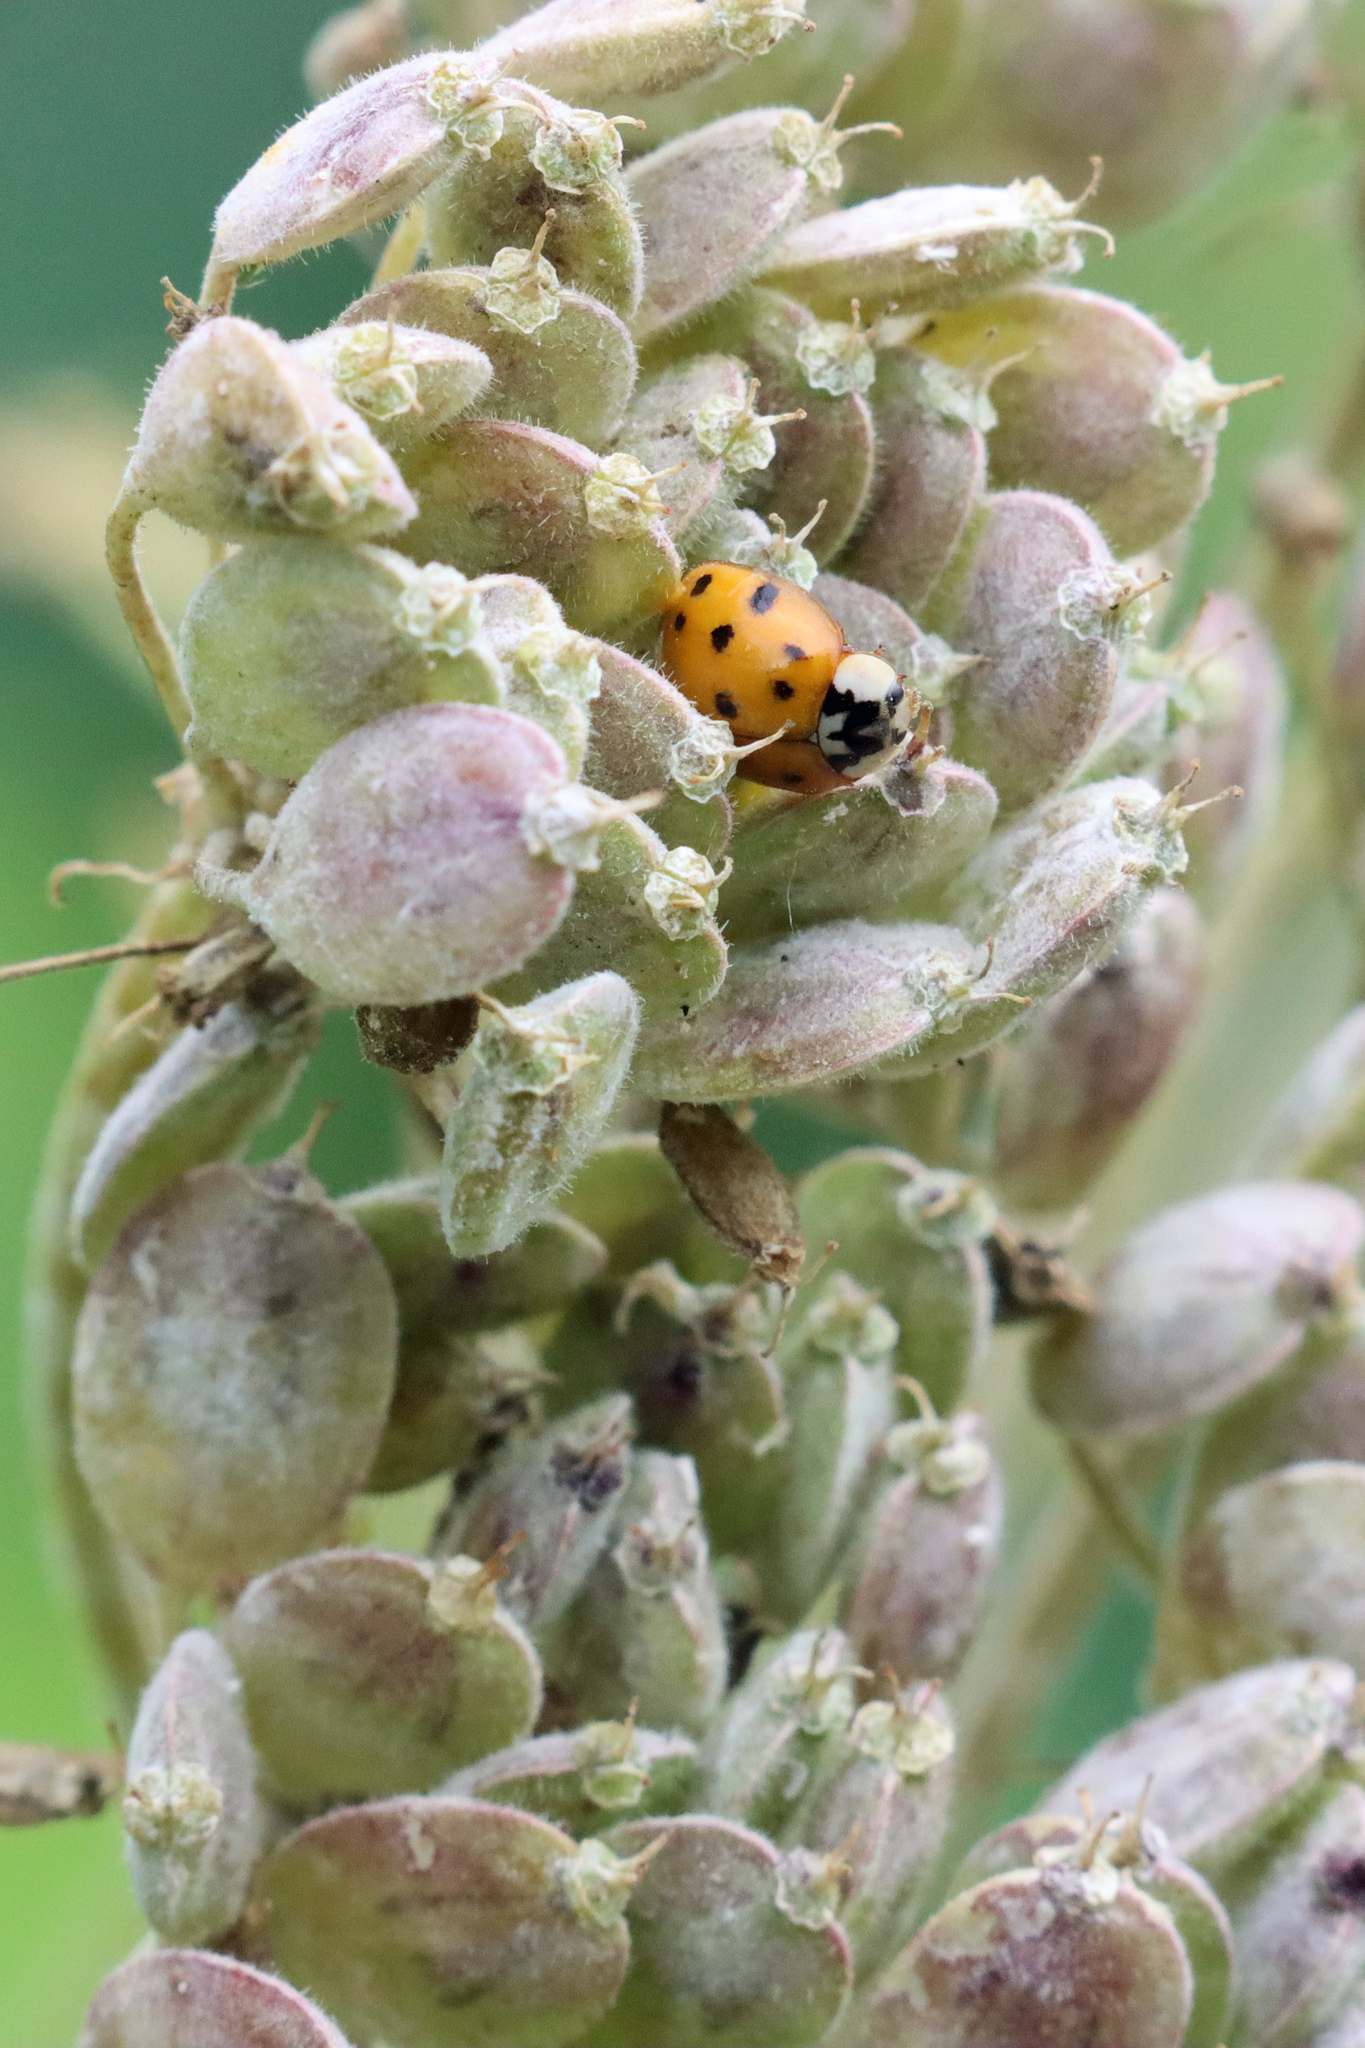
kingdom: Animalia
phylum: Arthropoda
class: Insecta
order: Coleoptera
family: Coccinellidae
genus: Harmonia
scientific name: Harmonia axyridis
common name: Harlequin ladybird
